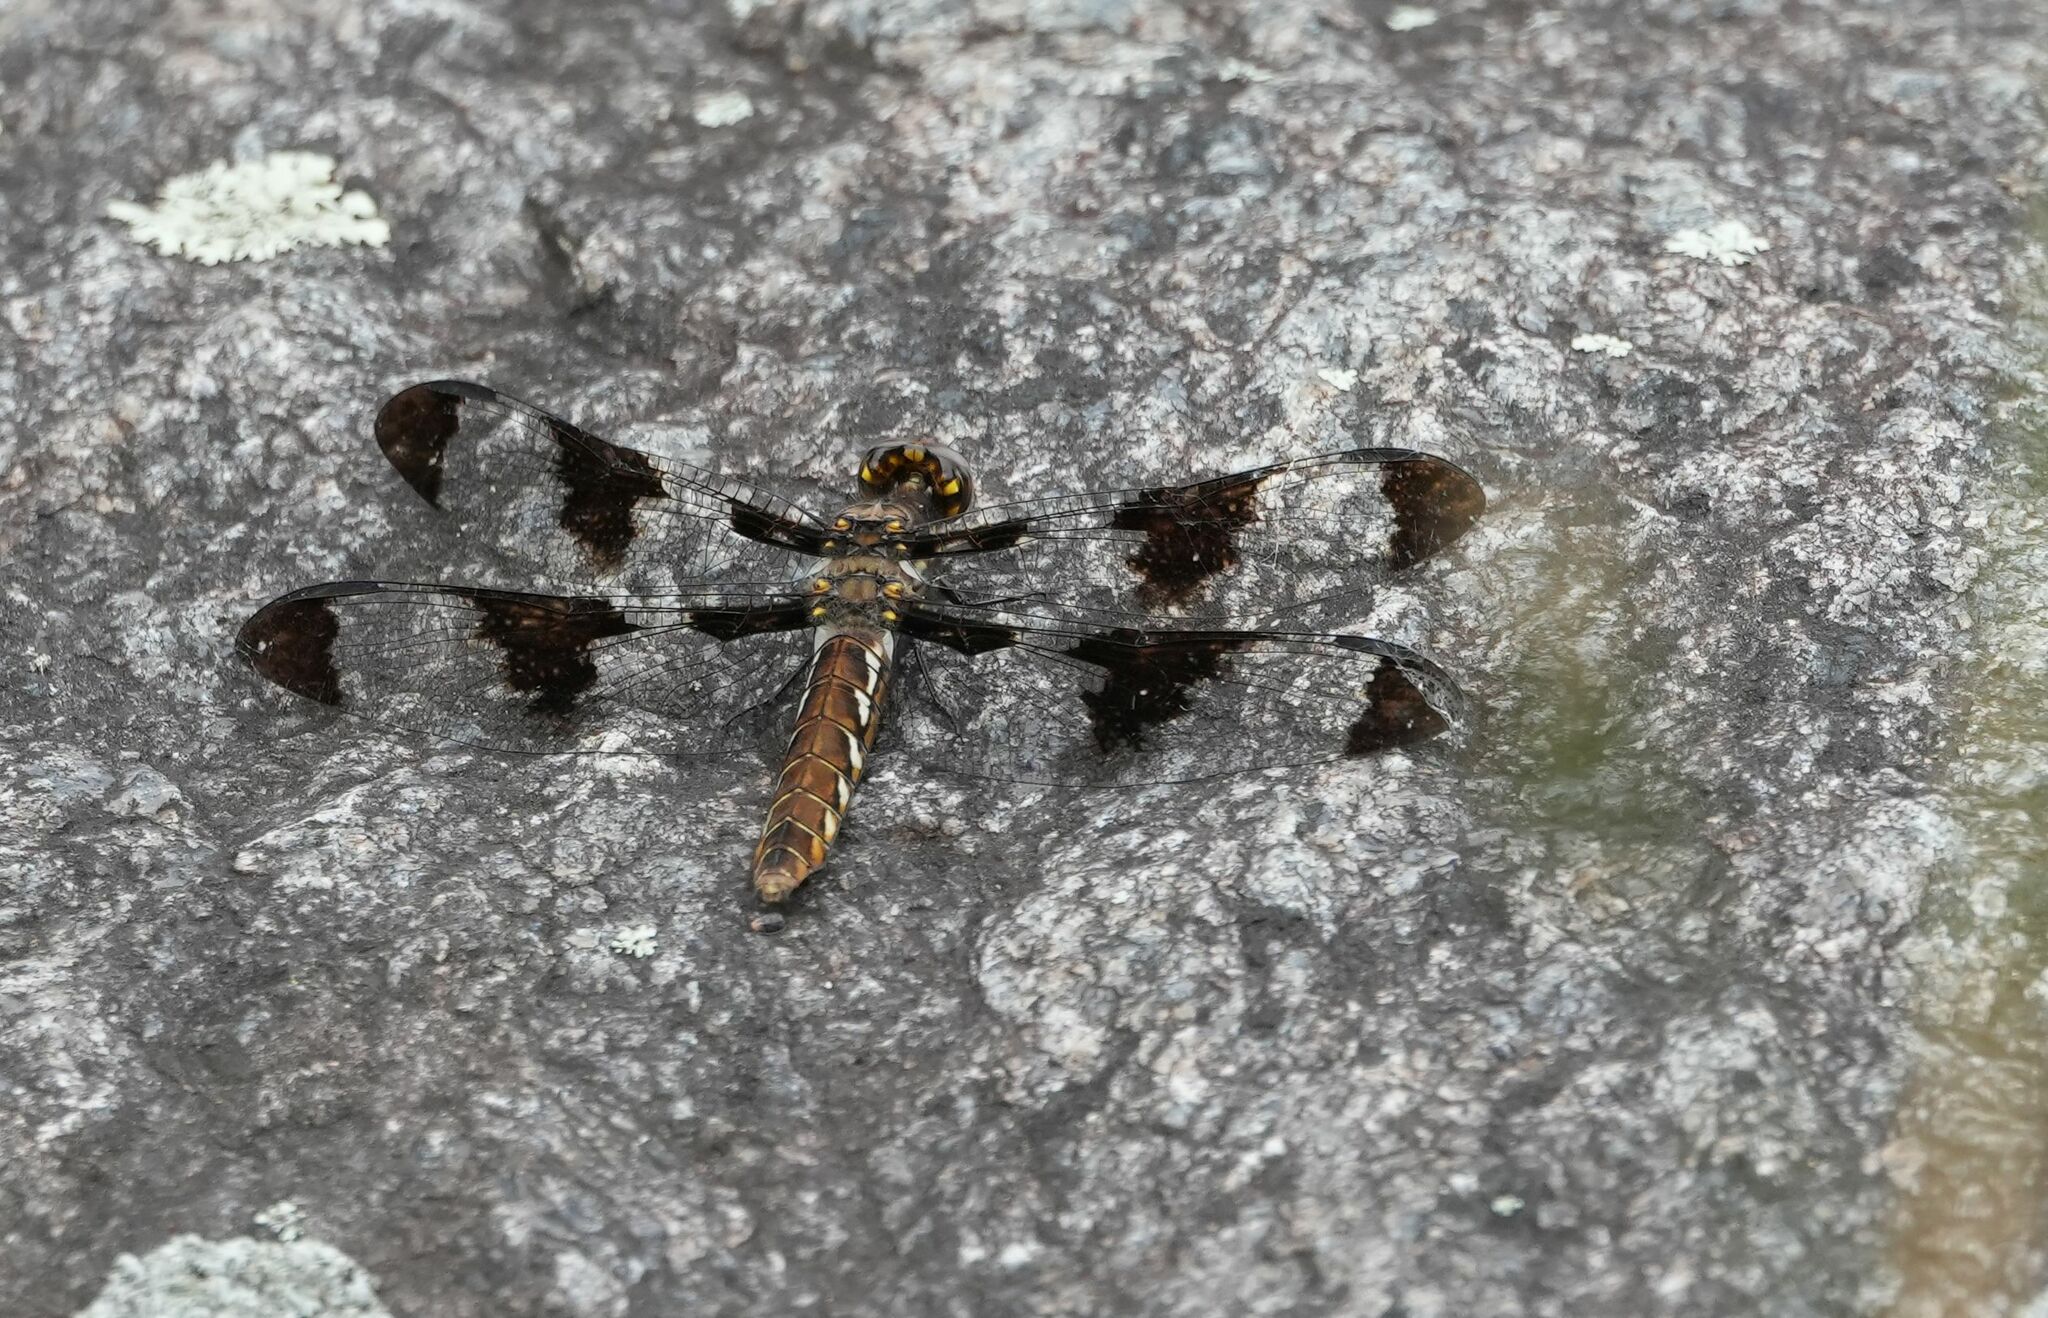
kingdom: Animalia
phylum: Arthropoda
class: Insecta
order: Odonata
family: Libellulidae
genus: Plathemis
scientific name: Plathemis lydia
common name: Common whitetail
